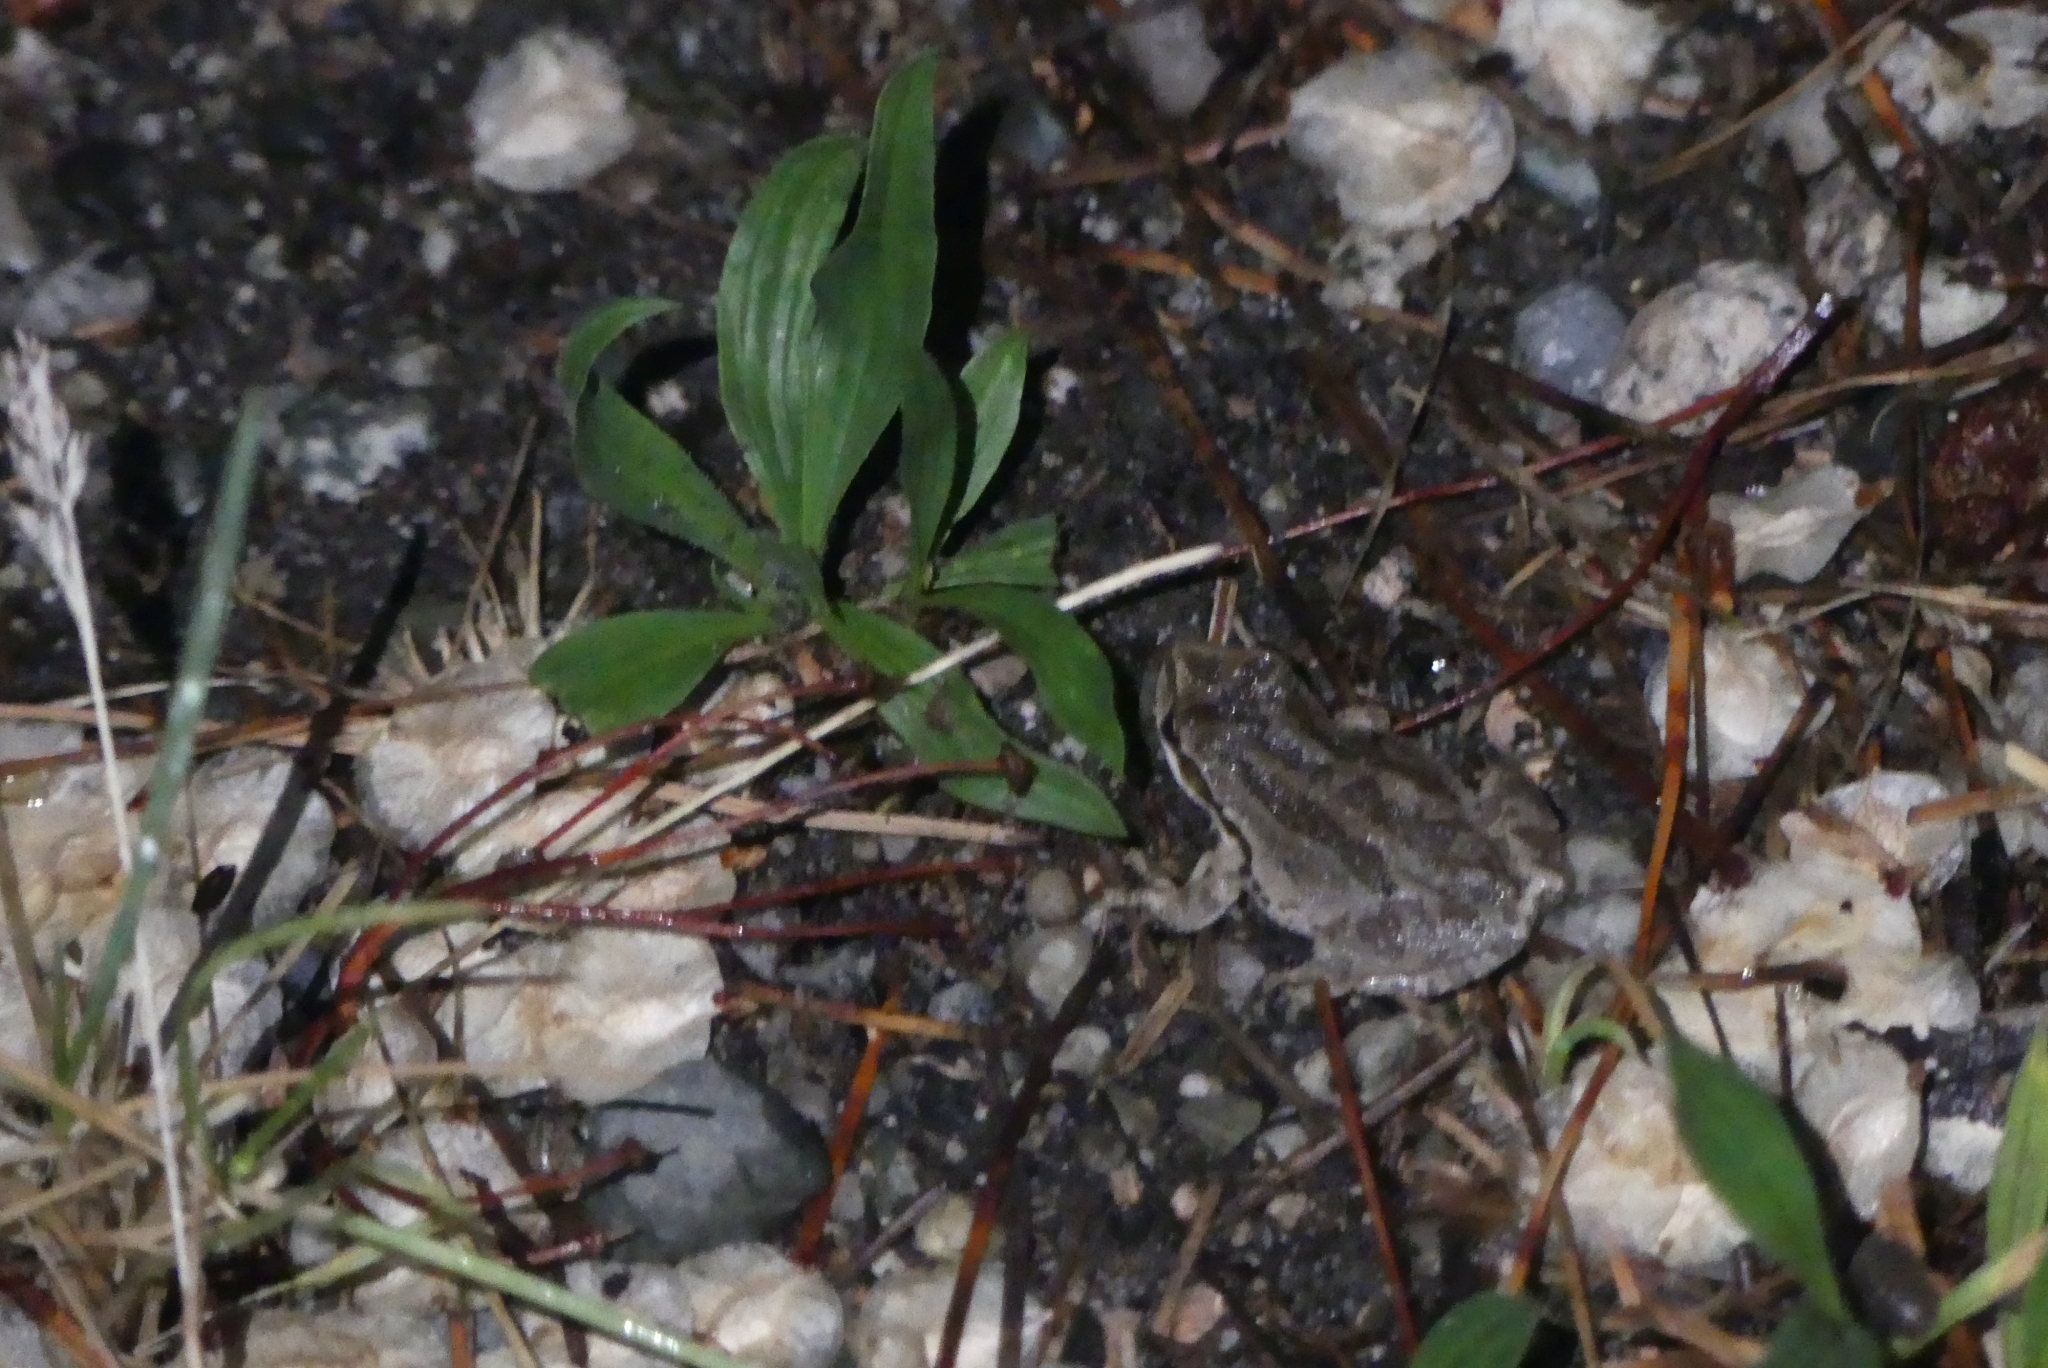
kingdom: Animalia
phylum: Chordata
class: Amphibia
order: Anura
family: Hylidae
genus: Pseudacris
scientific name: Pseudacris regilla
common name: Pacific chorus frog
